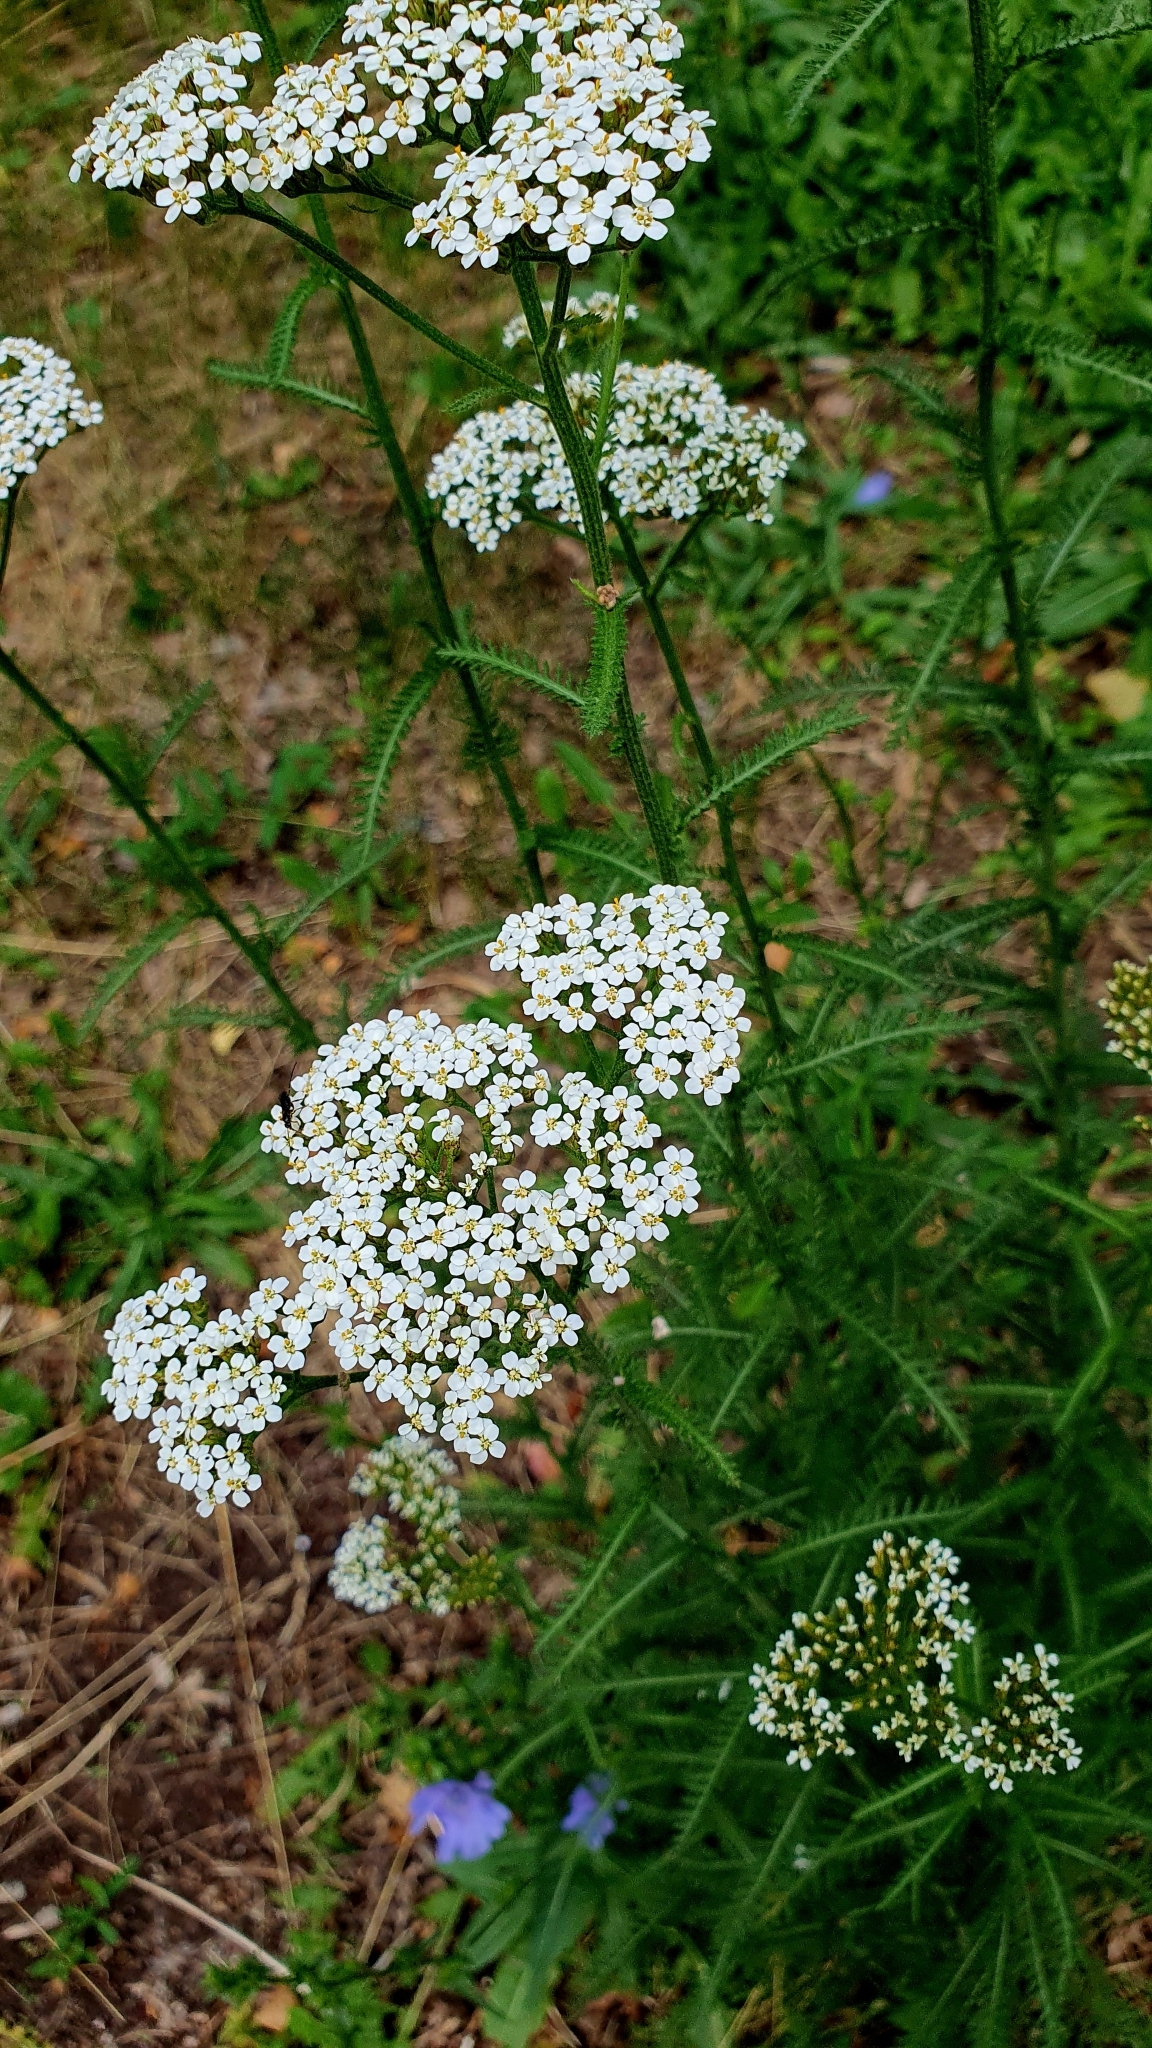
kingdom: Plantae
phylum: Tracheophyta
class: Magnoliopsida
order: Asterales
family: Asteraceae
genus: Achillea
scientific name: Achillea millefolium
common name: Yarrow
